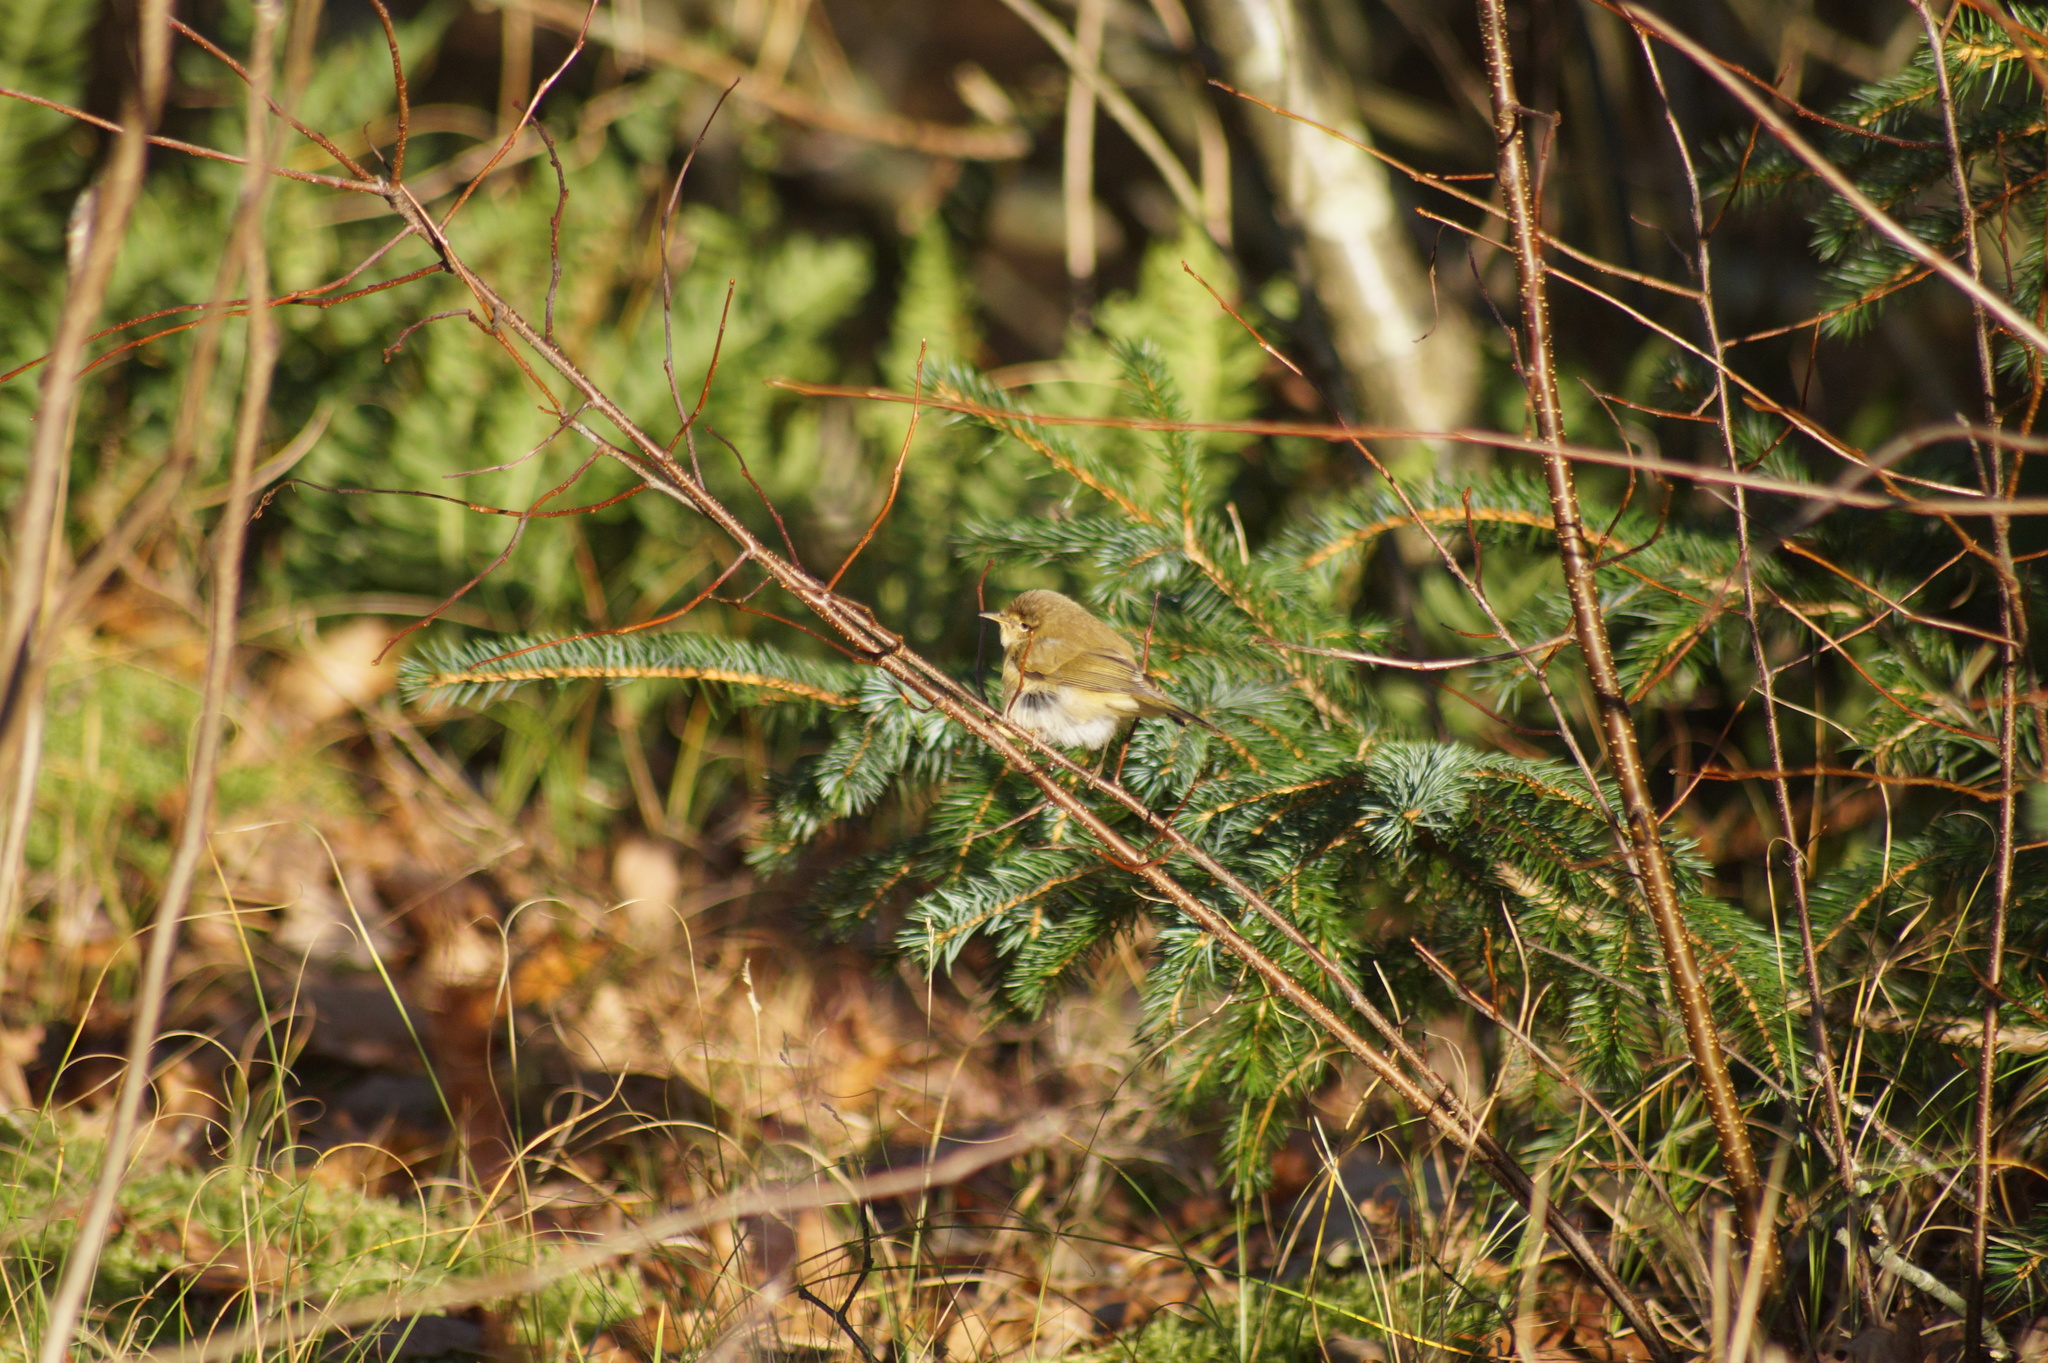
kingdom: Animalia
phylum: Chordata
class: Aves
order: Passeriformes
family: Phylloscopidae
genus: Phylloscopus
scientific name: Phylloscopus collybita
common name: Common chiffchaff
